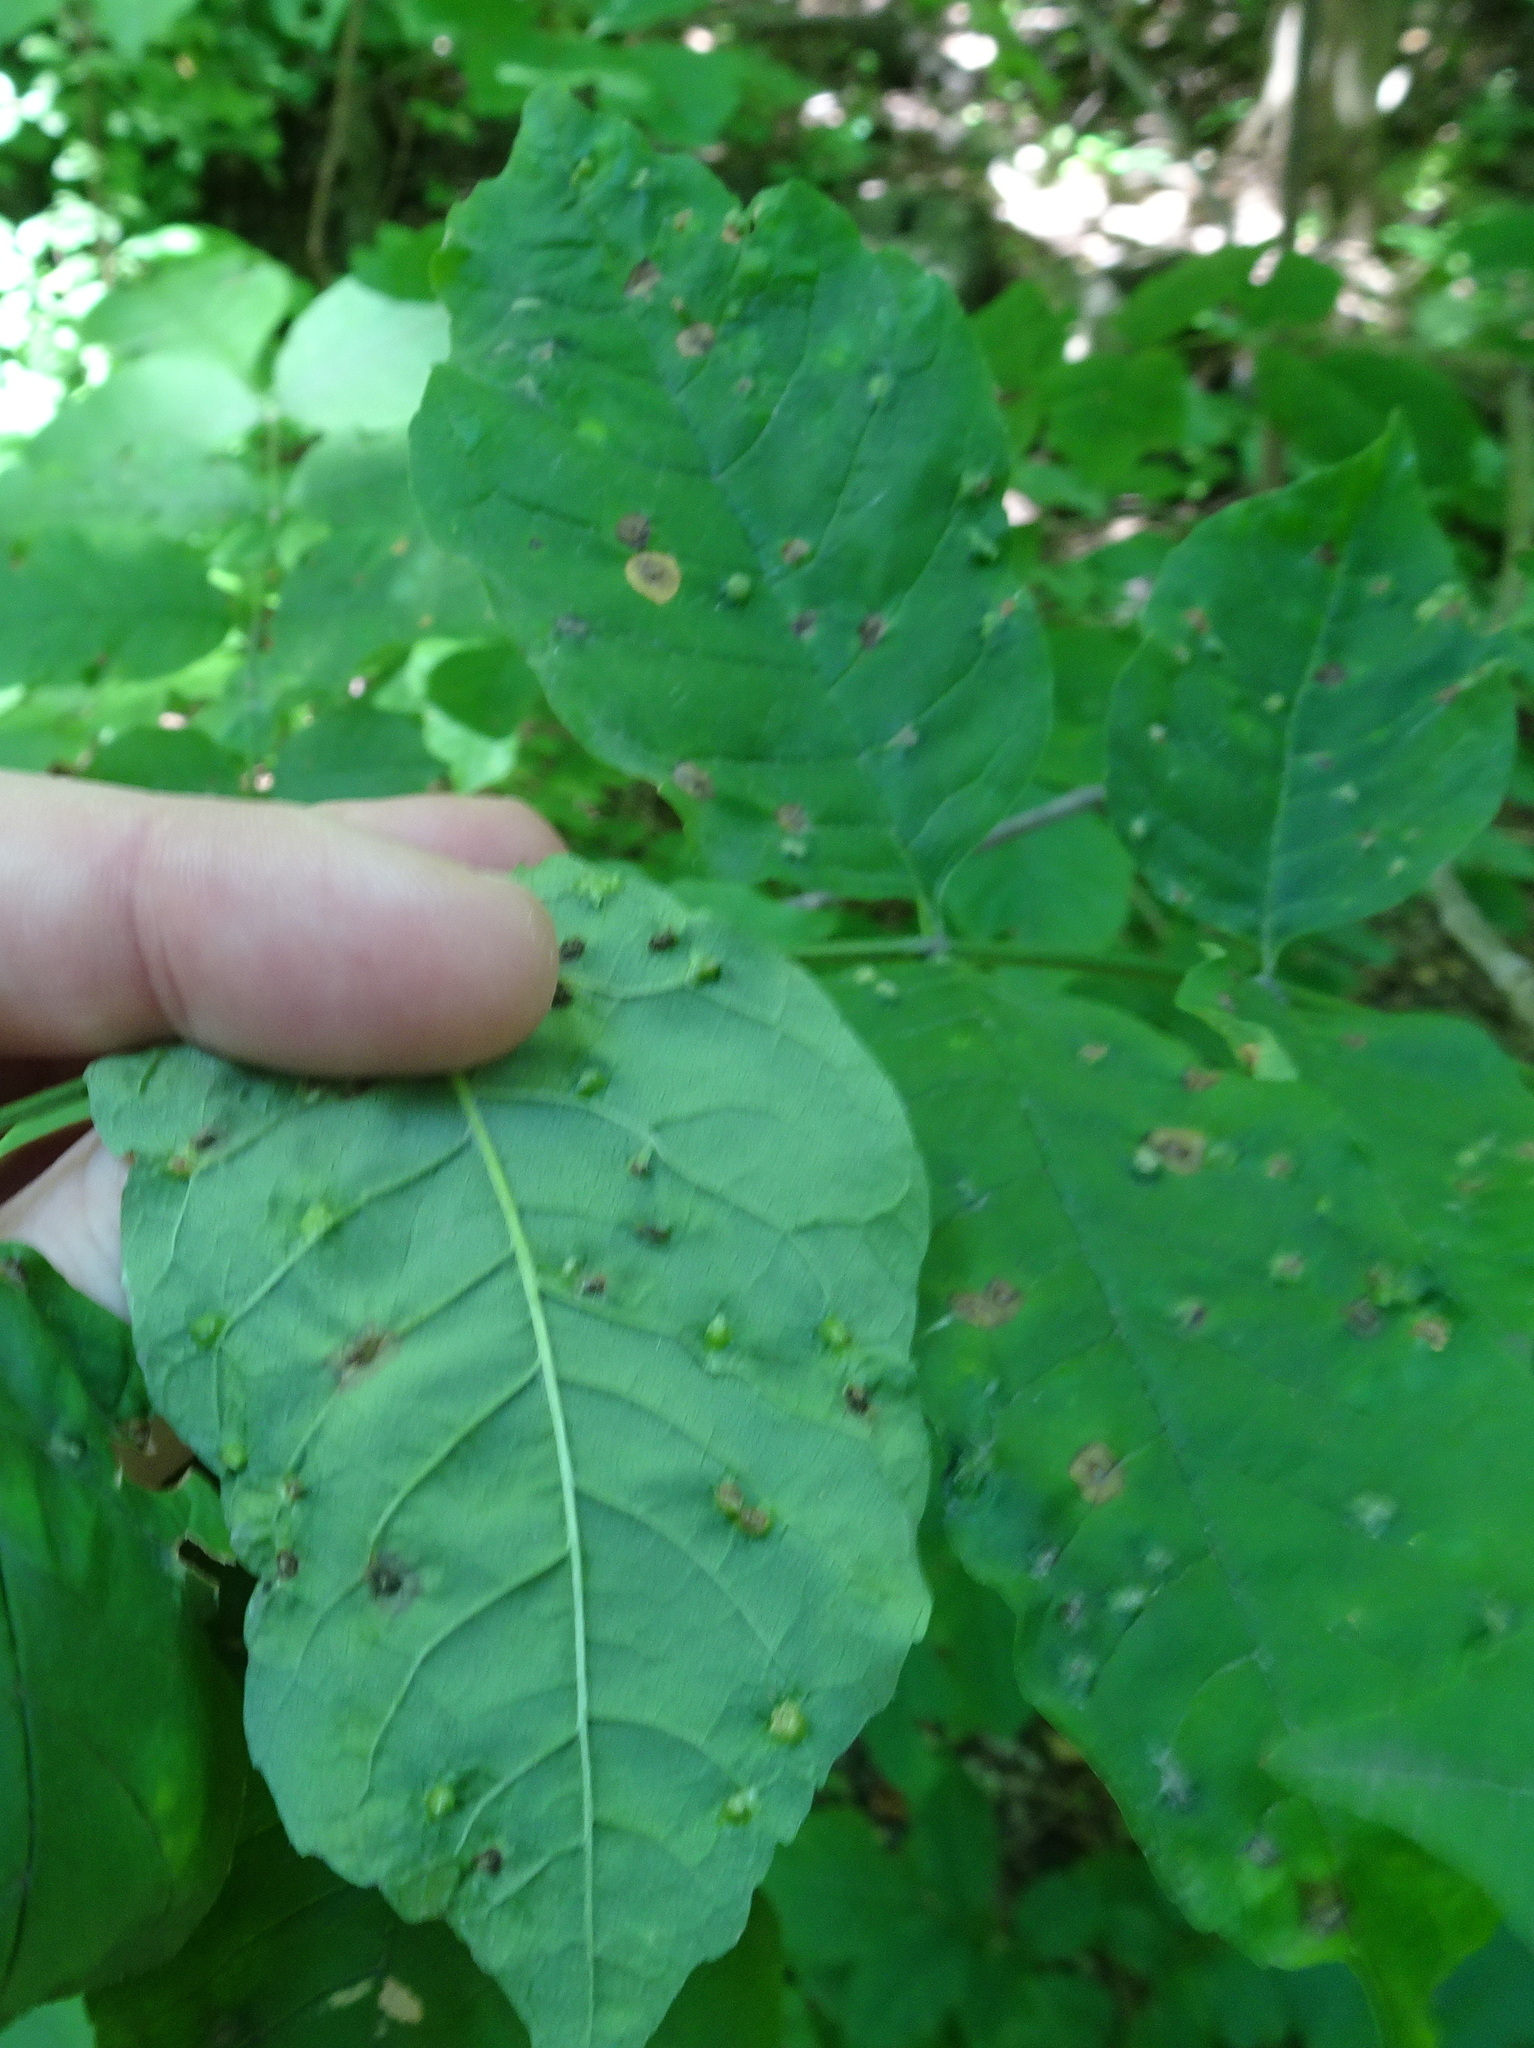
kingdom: Animalia
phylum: Arthropoda
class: Arachnida
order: Trombidiformes
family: Eriophyidae
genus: Aceria
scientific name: Aceria fraxinicola
